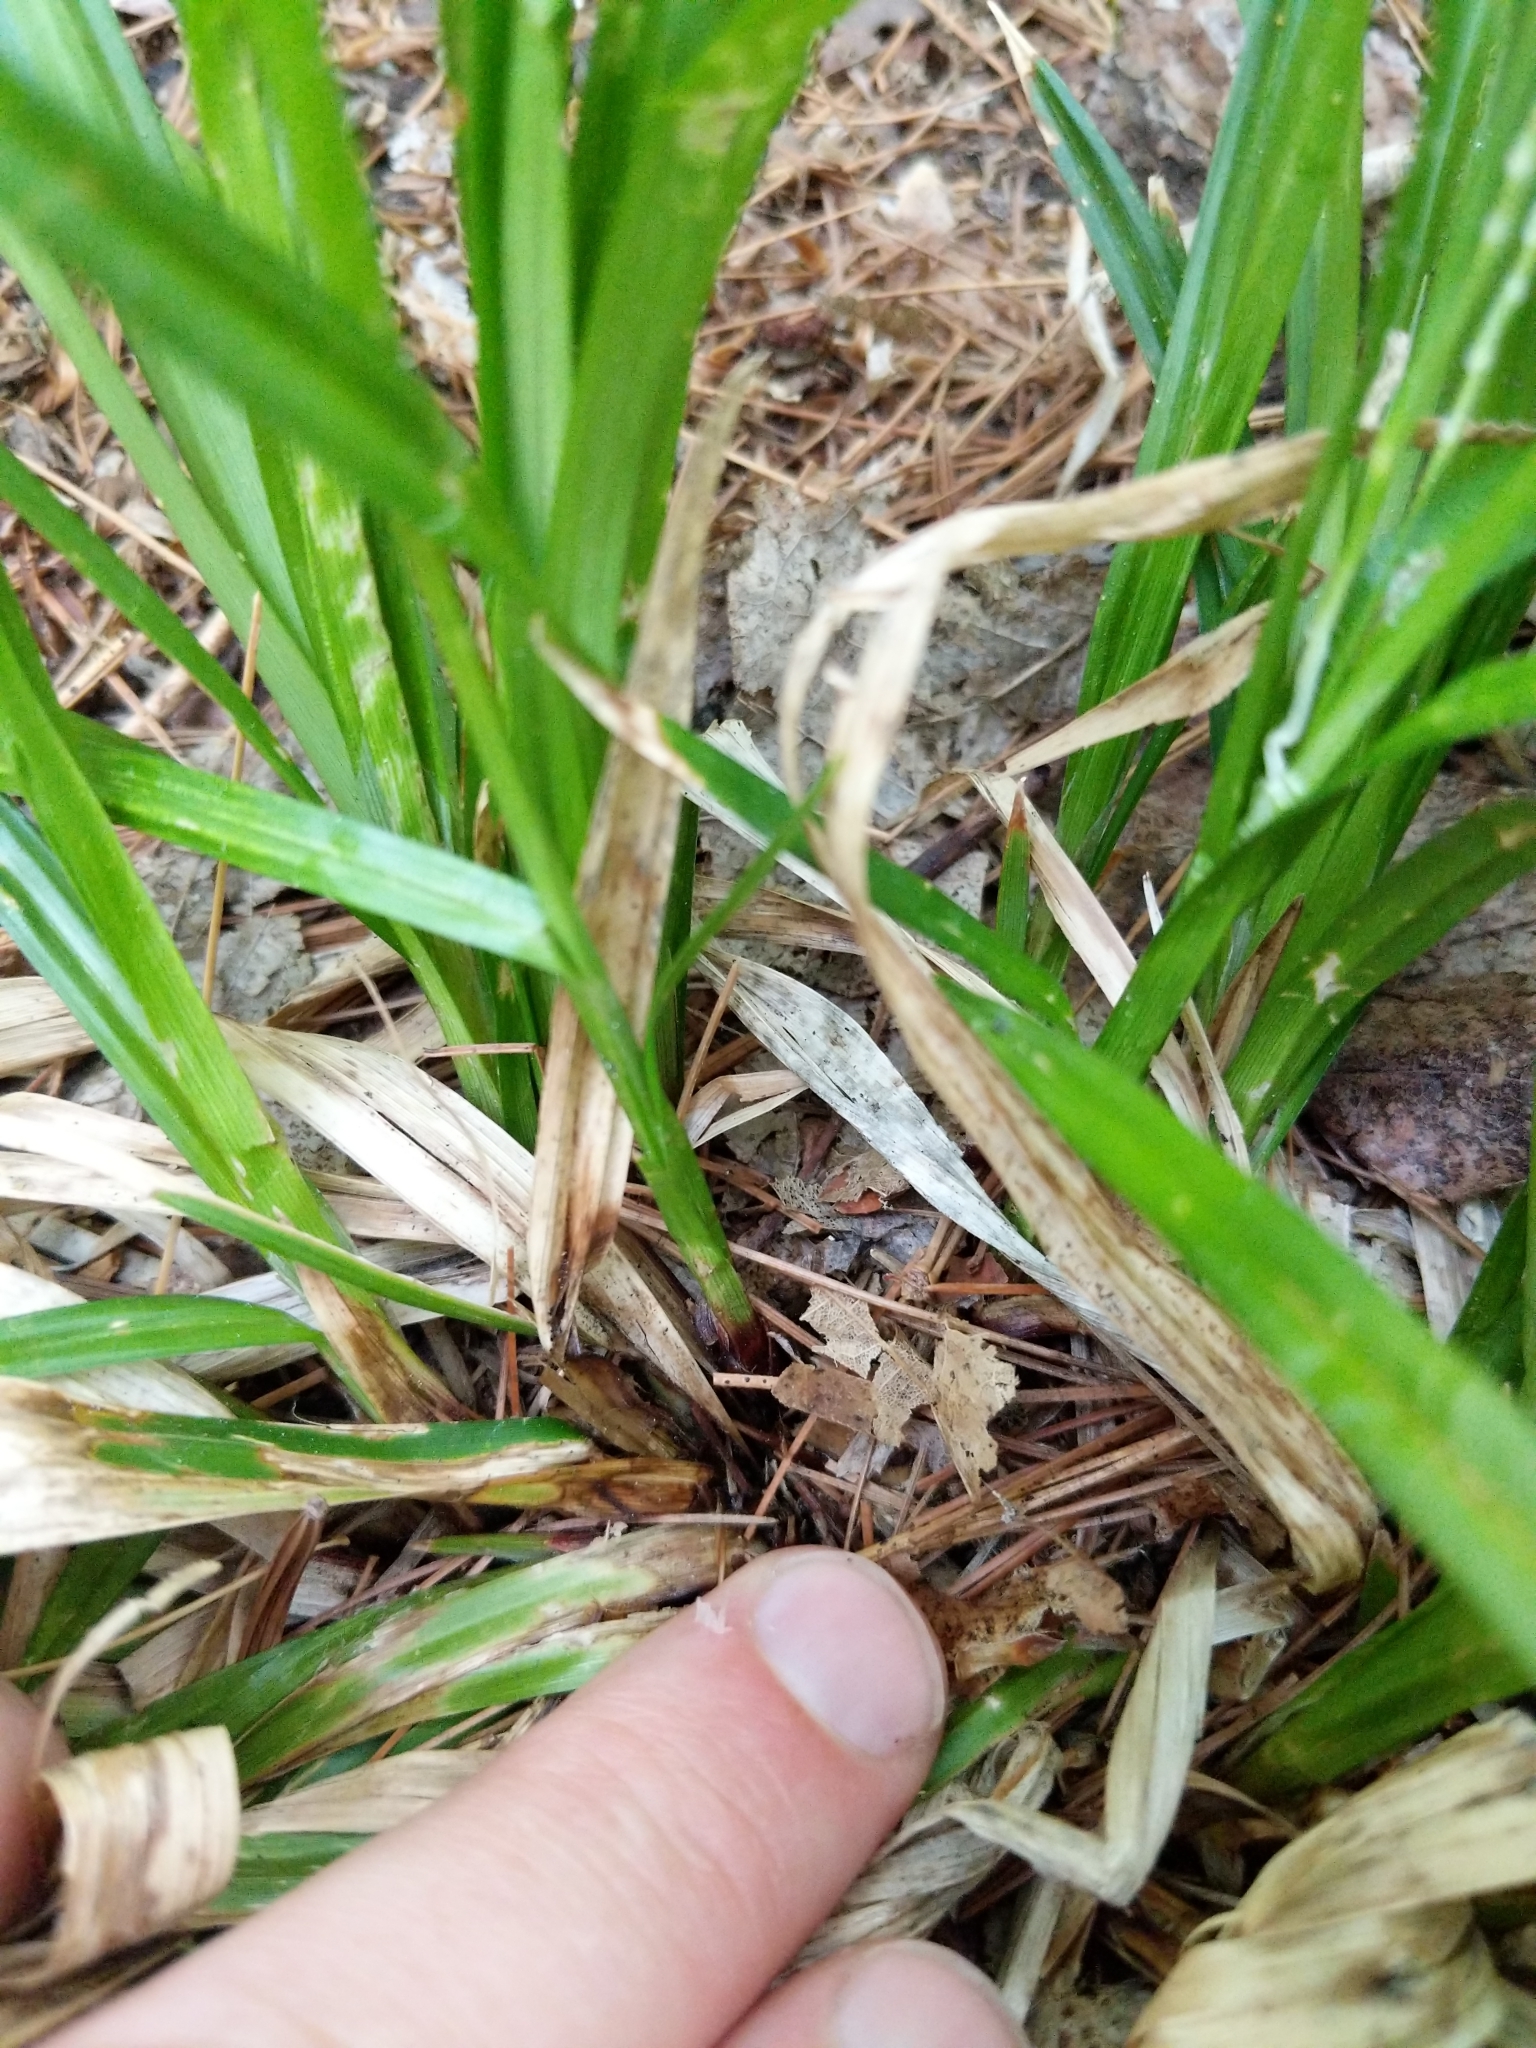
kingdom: Plantae
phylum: Tracheophyta
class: Liliopsida
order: Poales
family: Cyperaceae
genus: Carex
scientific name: Carex arctata
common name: Black sedge
